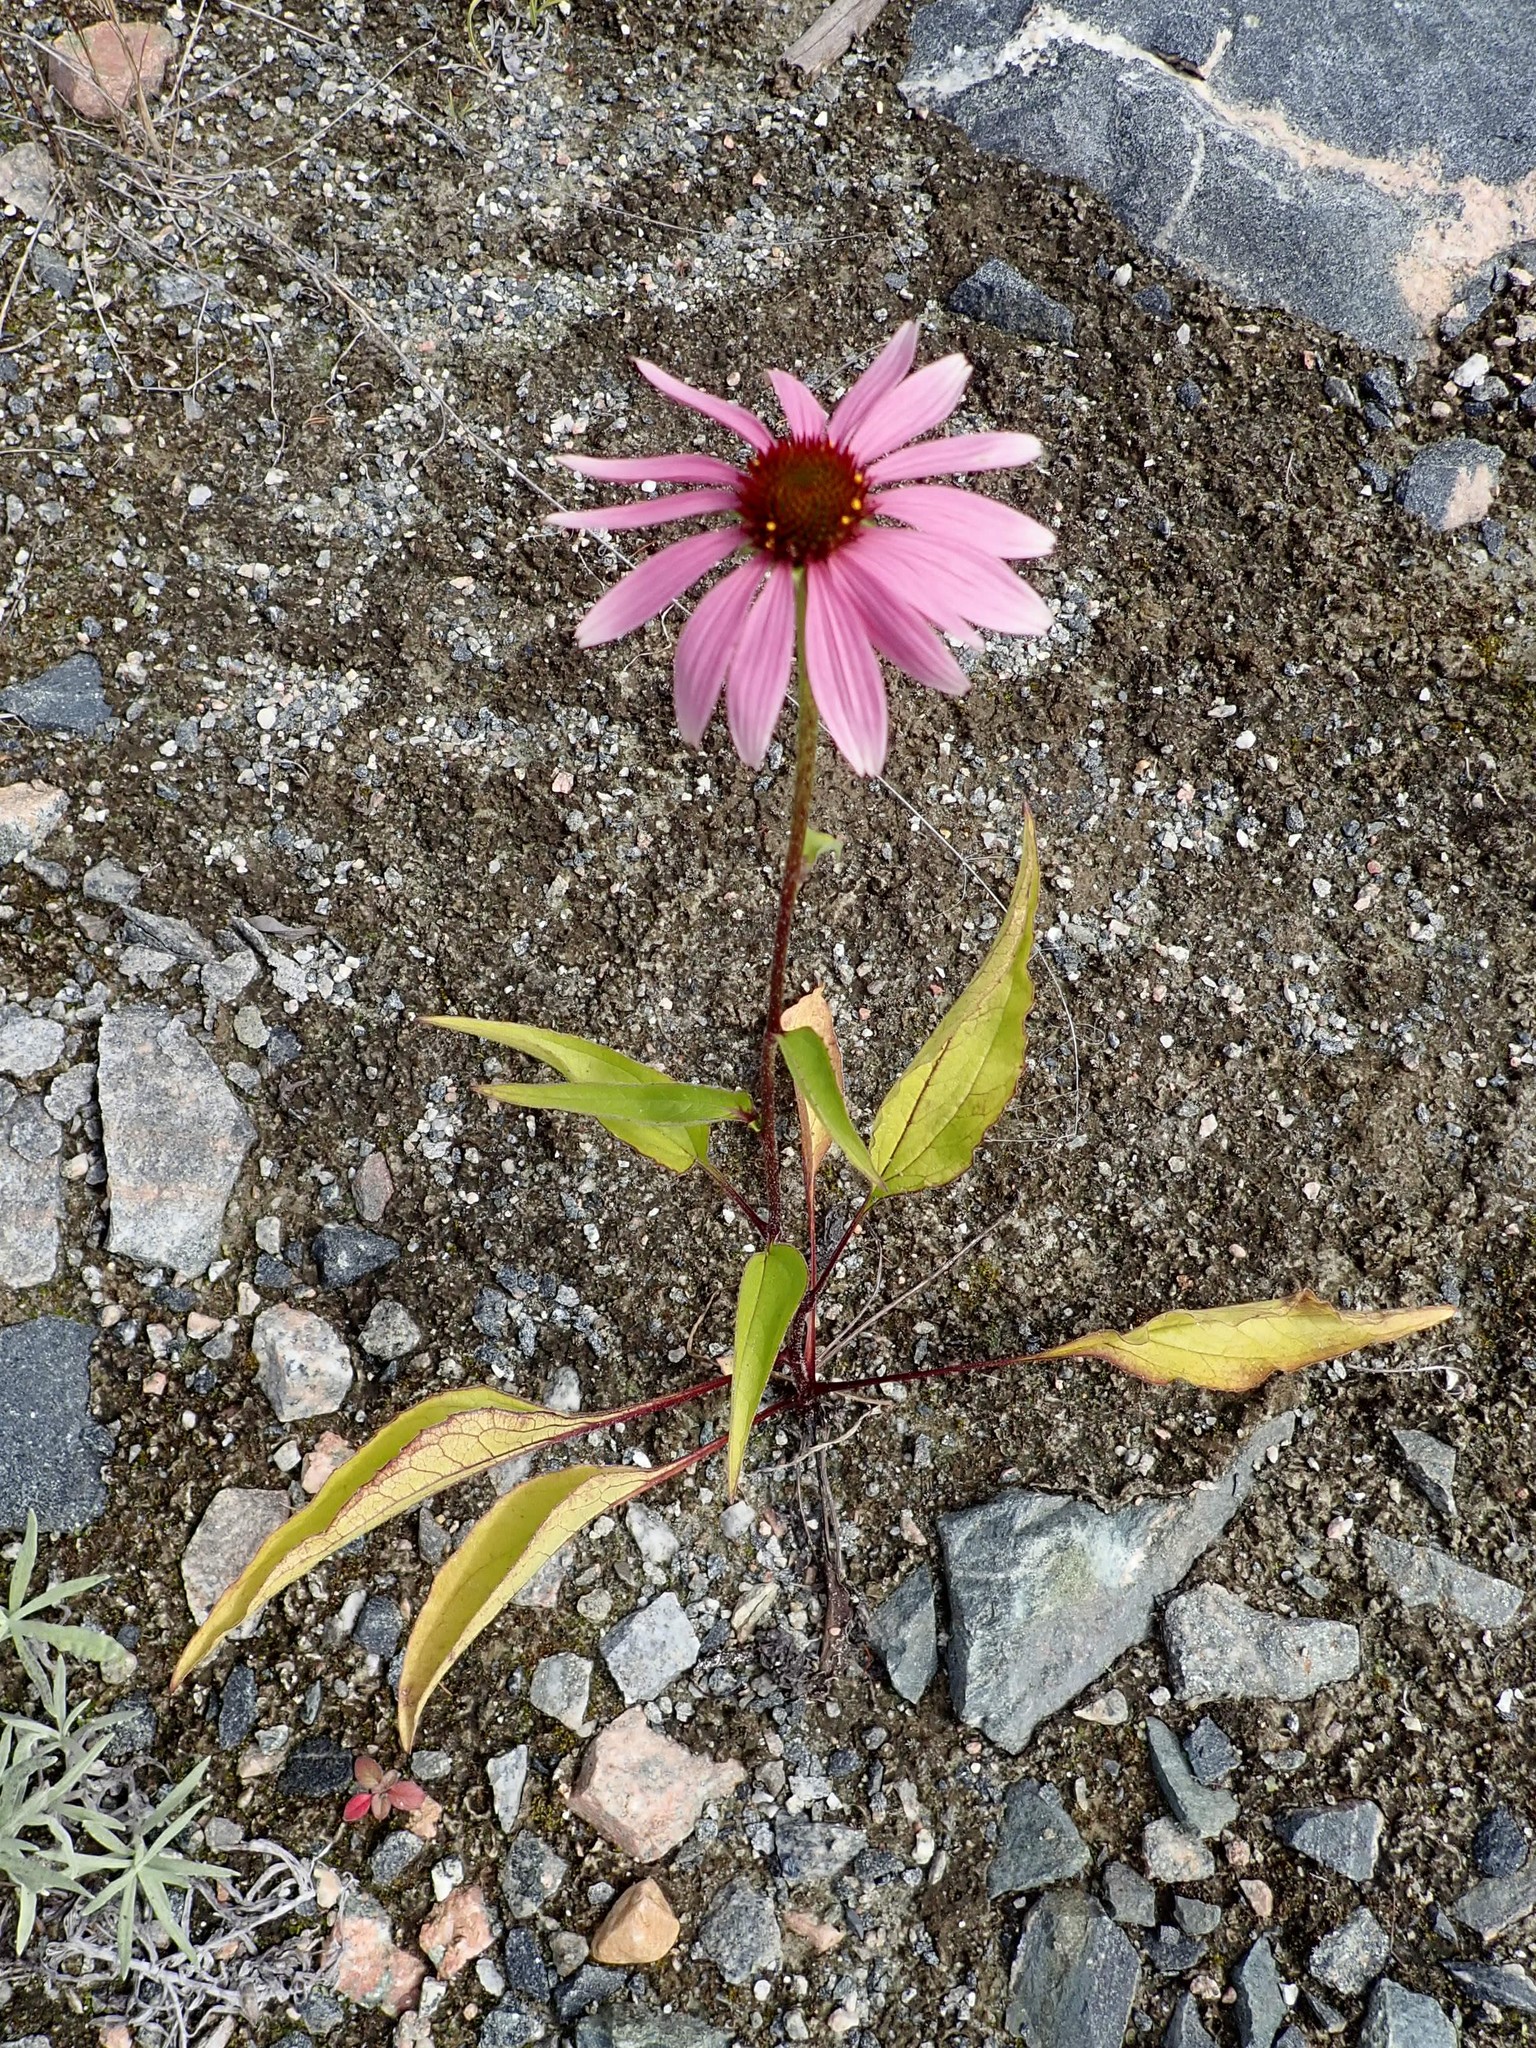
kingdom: Plantae
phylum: Tracheophyta
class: Magnoliopsida
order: Asterales
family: Asteraceae
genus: Echinacea
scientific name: Echinacea purpurea
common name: Broad-leaved purple coneflower
